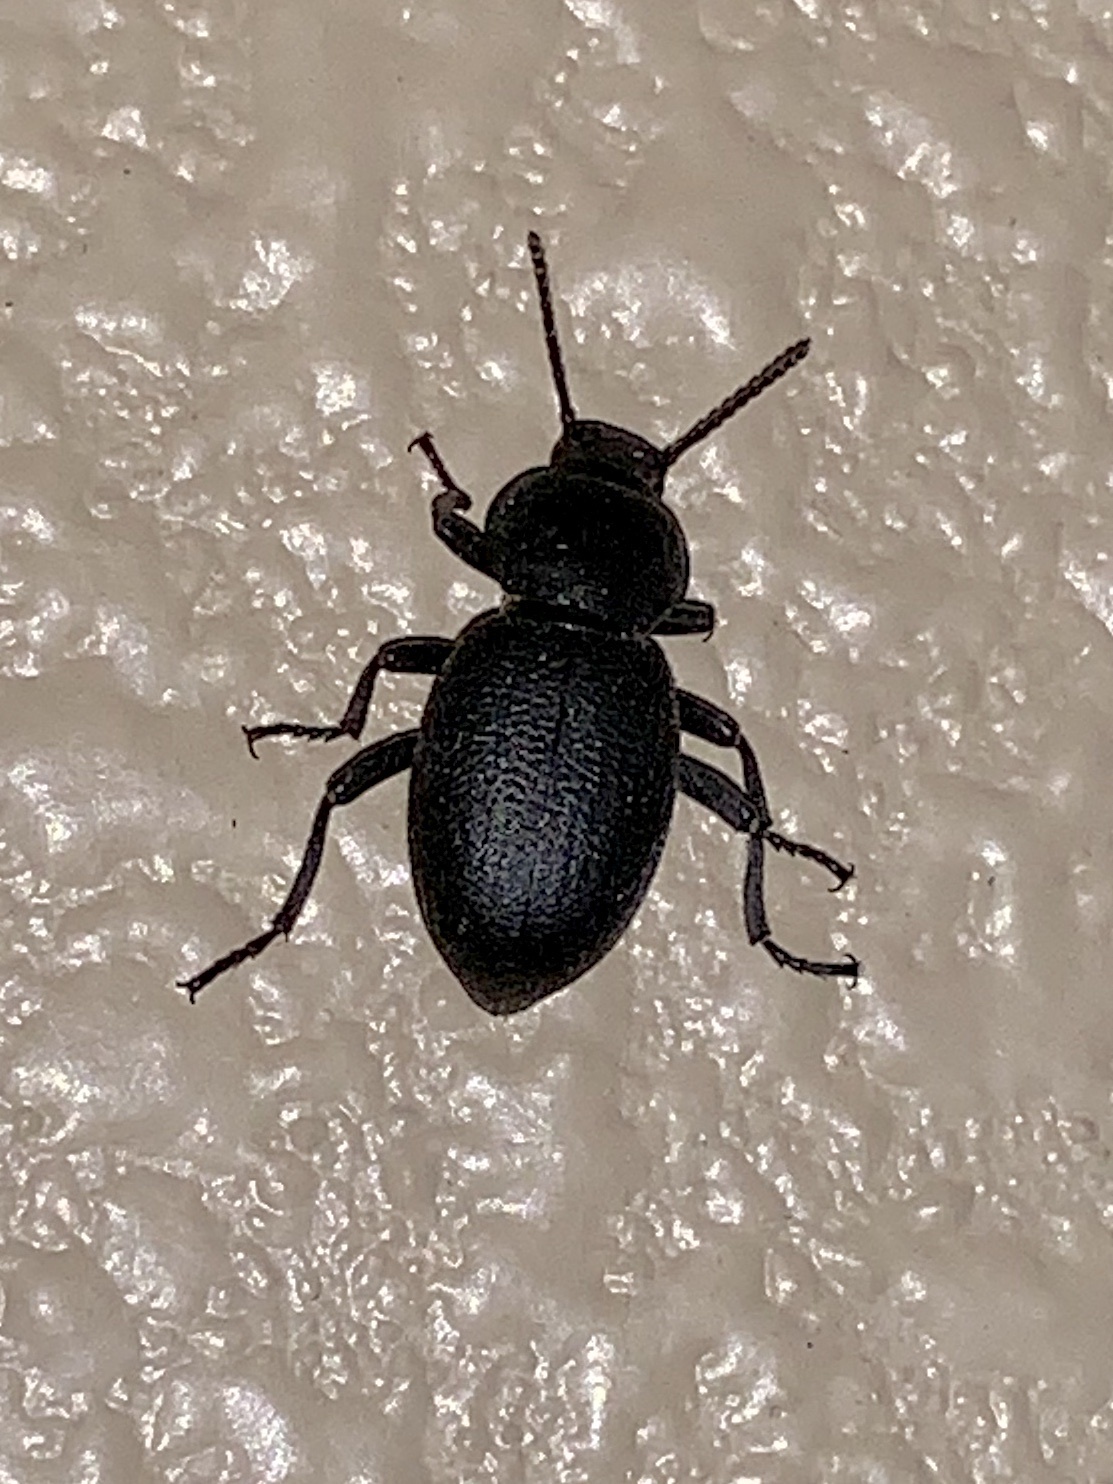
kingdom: Animalia
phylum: Arthropoda
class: Insecta
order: Coleoptera
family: Tenebrionidae
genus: Eleodes
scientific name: Eleodes snowii
